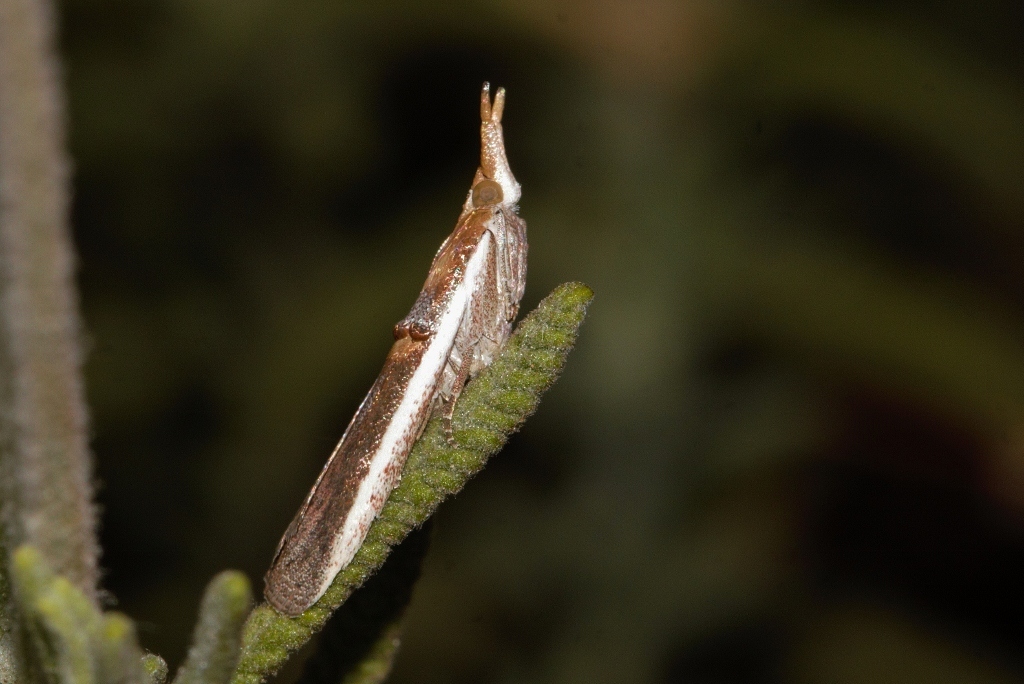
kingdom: Animalia
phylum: Arthropoda
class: Insecta
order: Lepidoptera
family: Pyralidae
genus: Etiella
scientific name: Etiella zinckenella
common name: Gold-banded etiella moth
